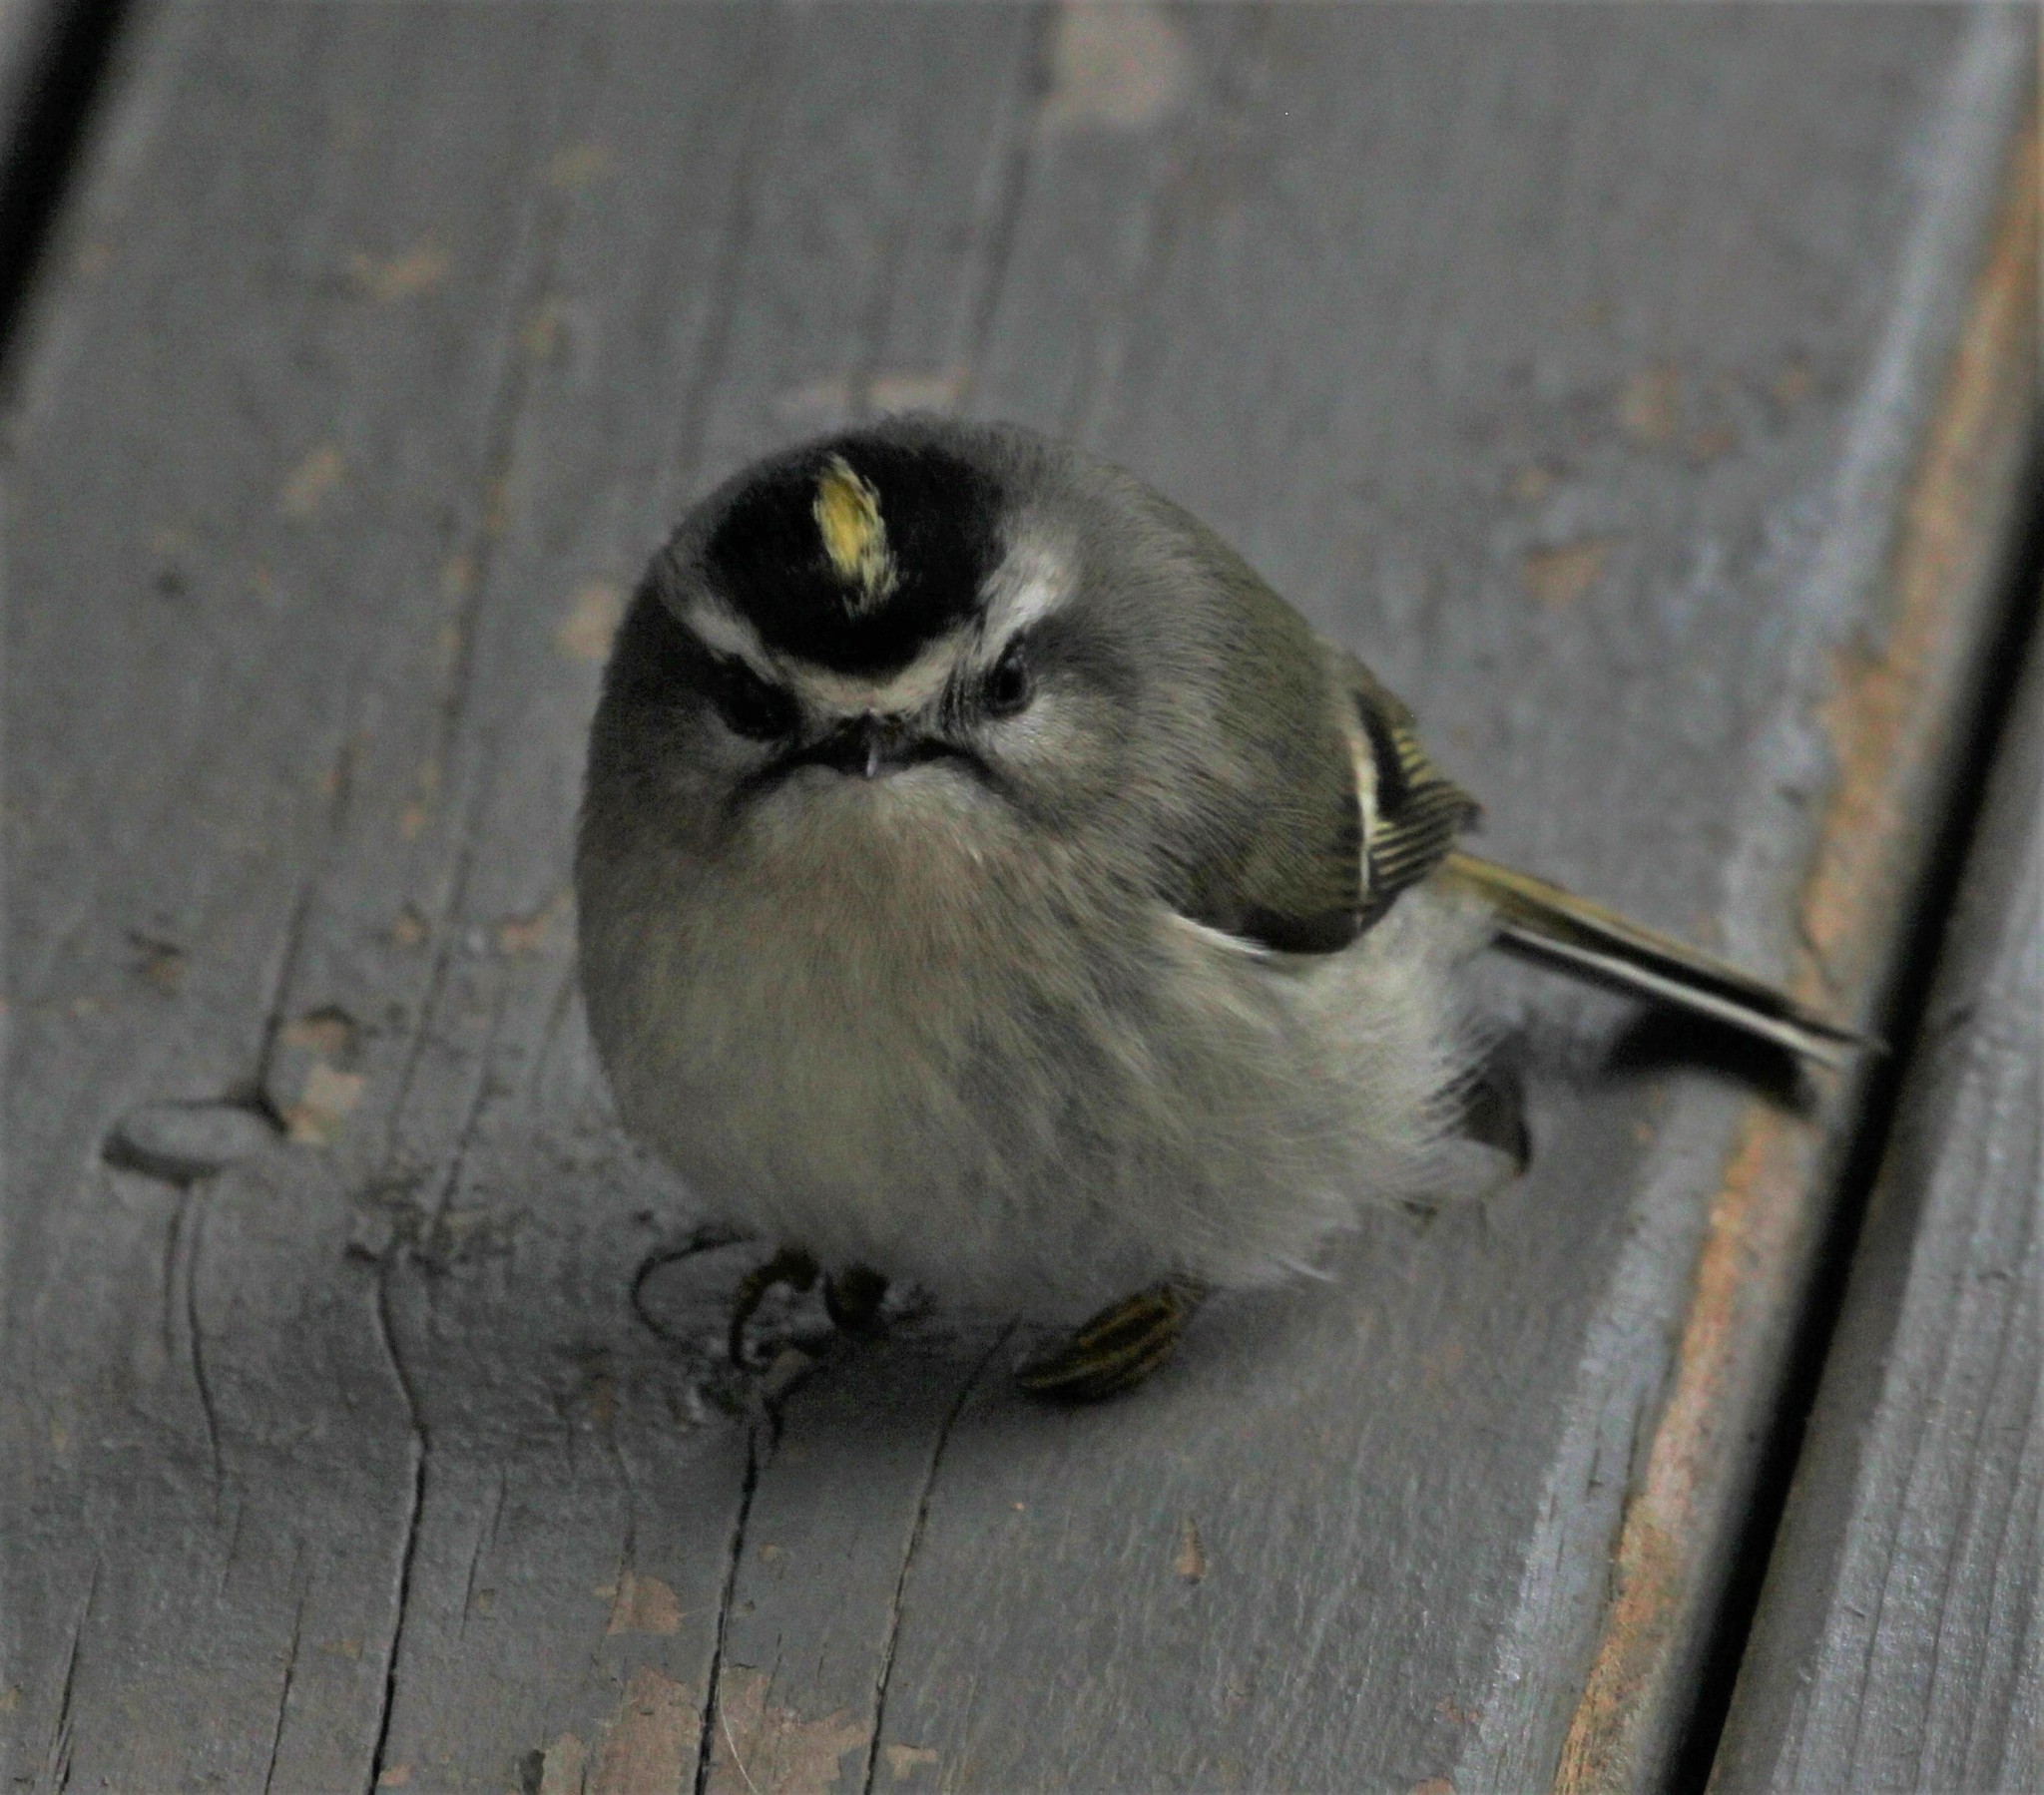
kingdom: Animalia
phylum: Chordata
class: Aves
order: Passeriformes
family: Regulidae
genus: Regulus
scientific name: Regulus satrapa
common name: Golden-crowned kinglet
